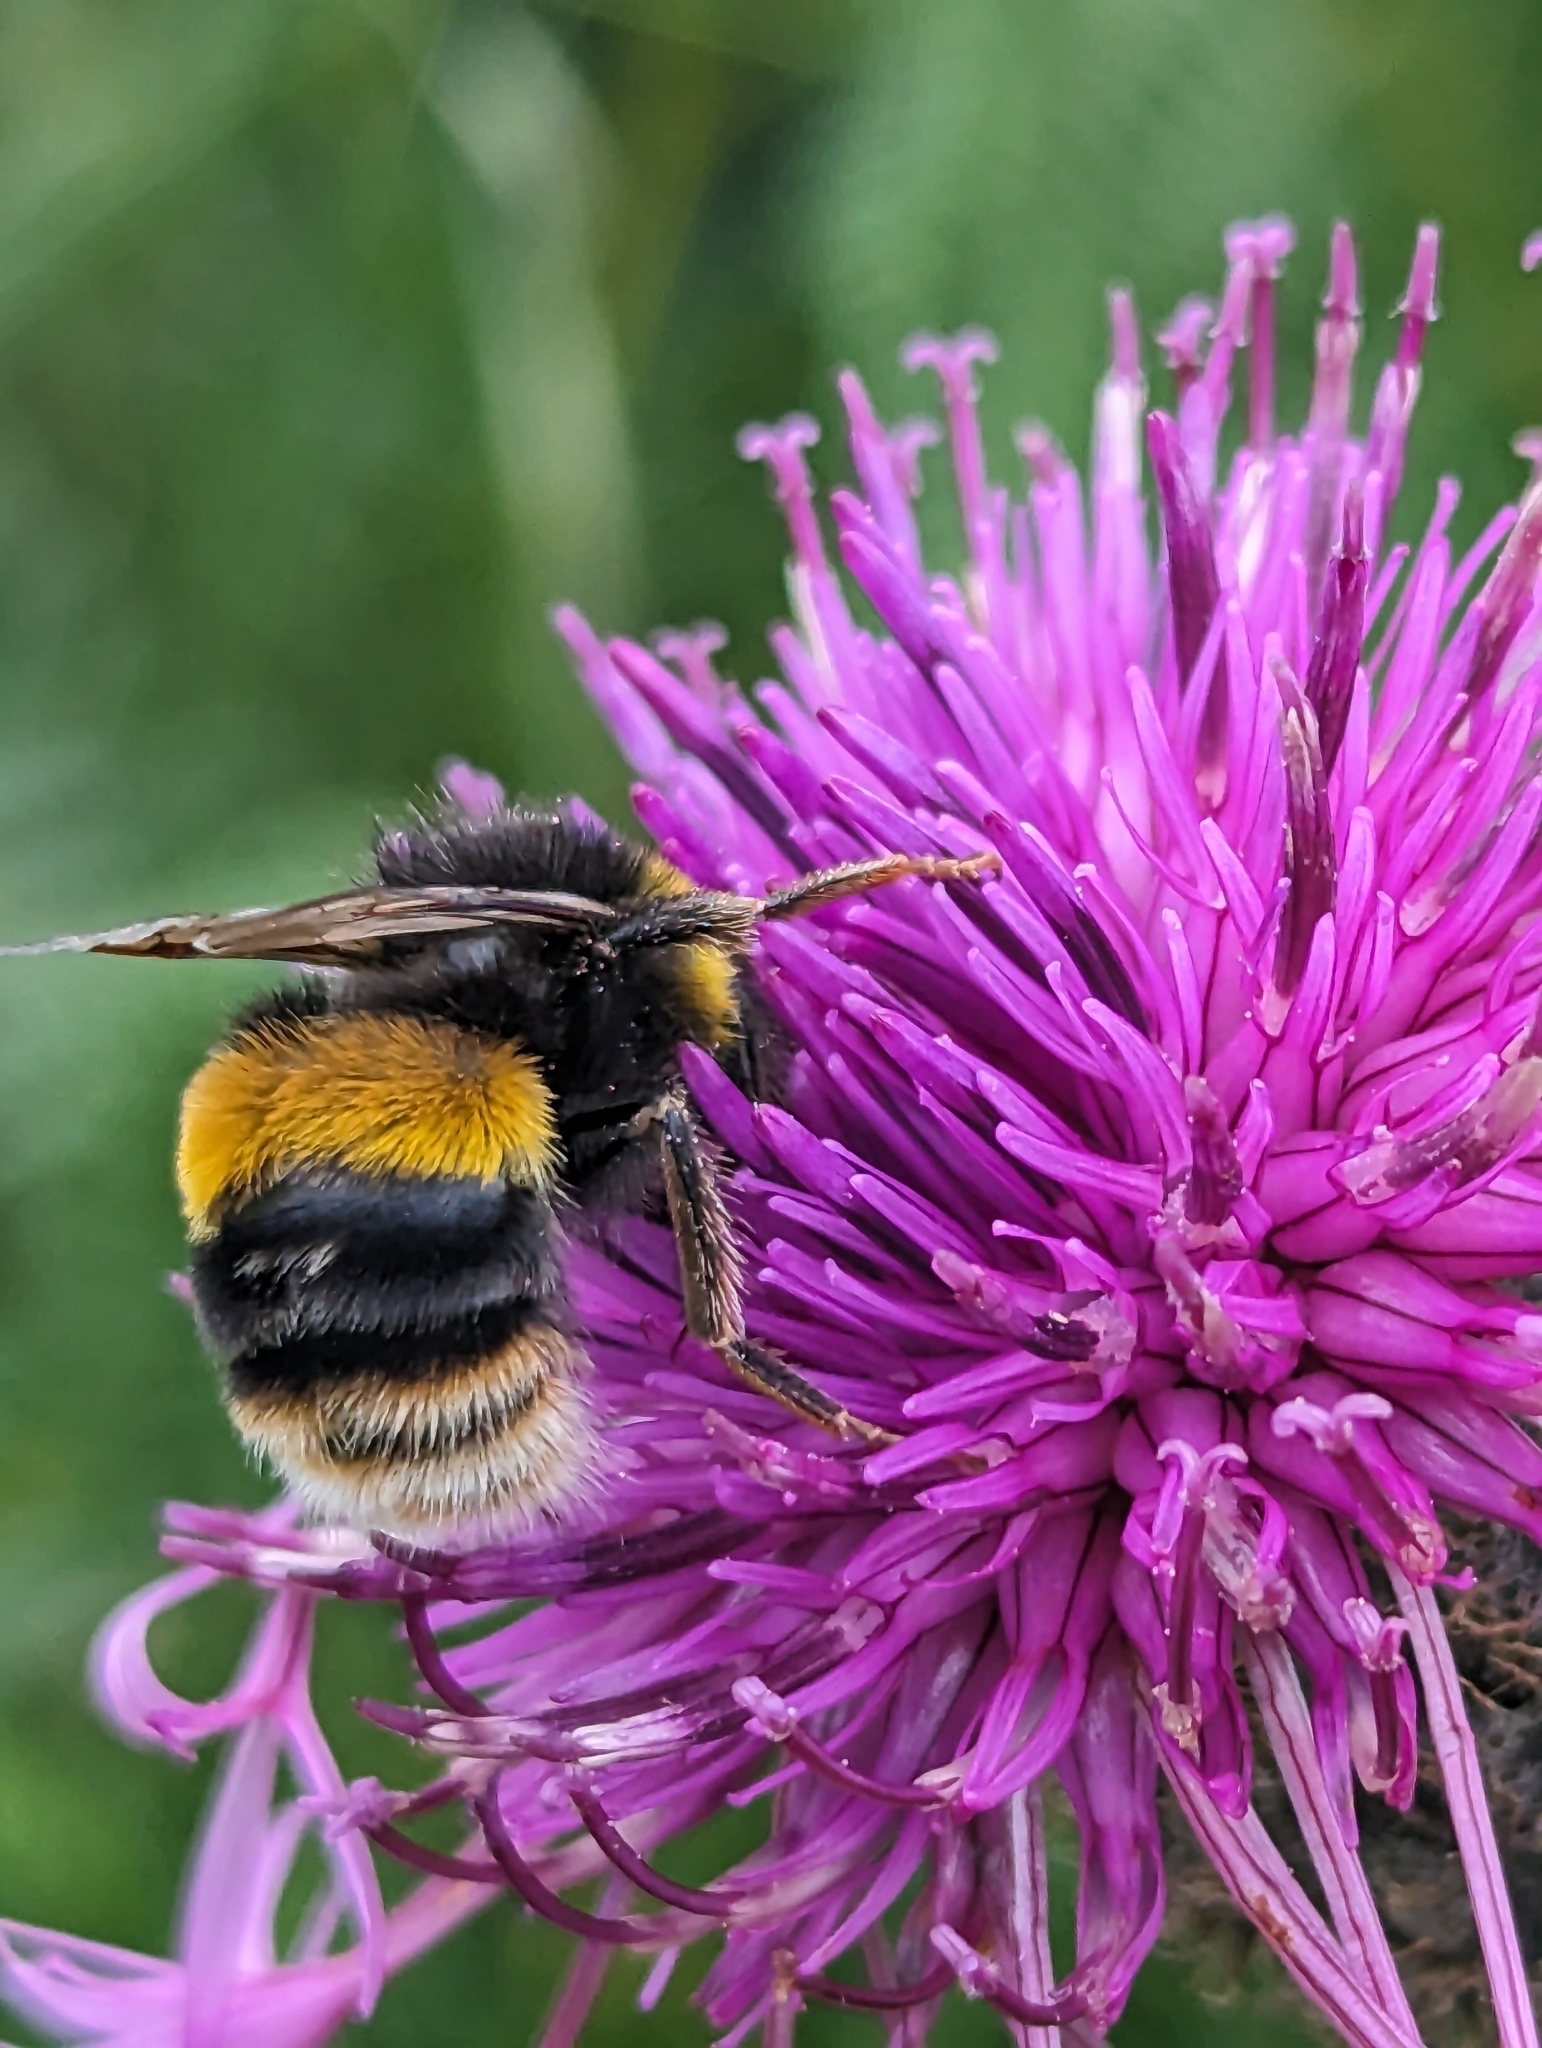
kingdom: Animalia
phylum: Arthropoda
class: Insecta
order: Hymenoptera
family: Apidae
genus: Bombus
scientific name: Bombus terrestris
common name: Buff-tailed bumblebee
